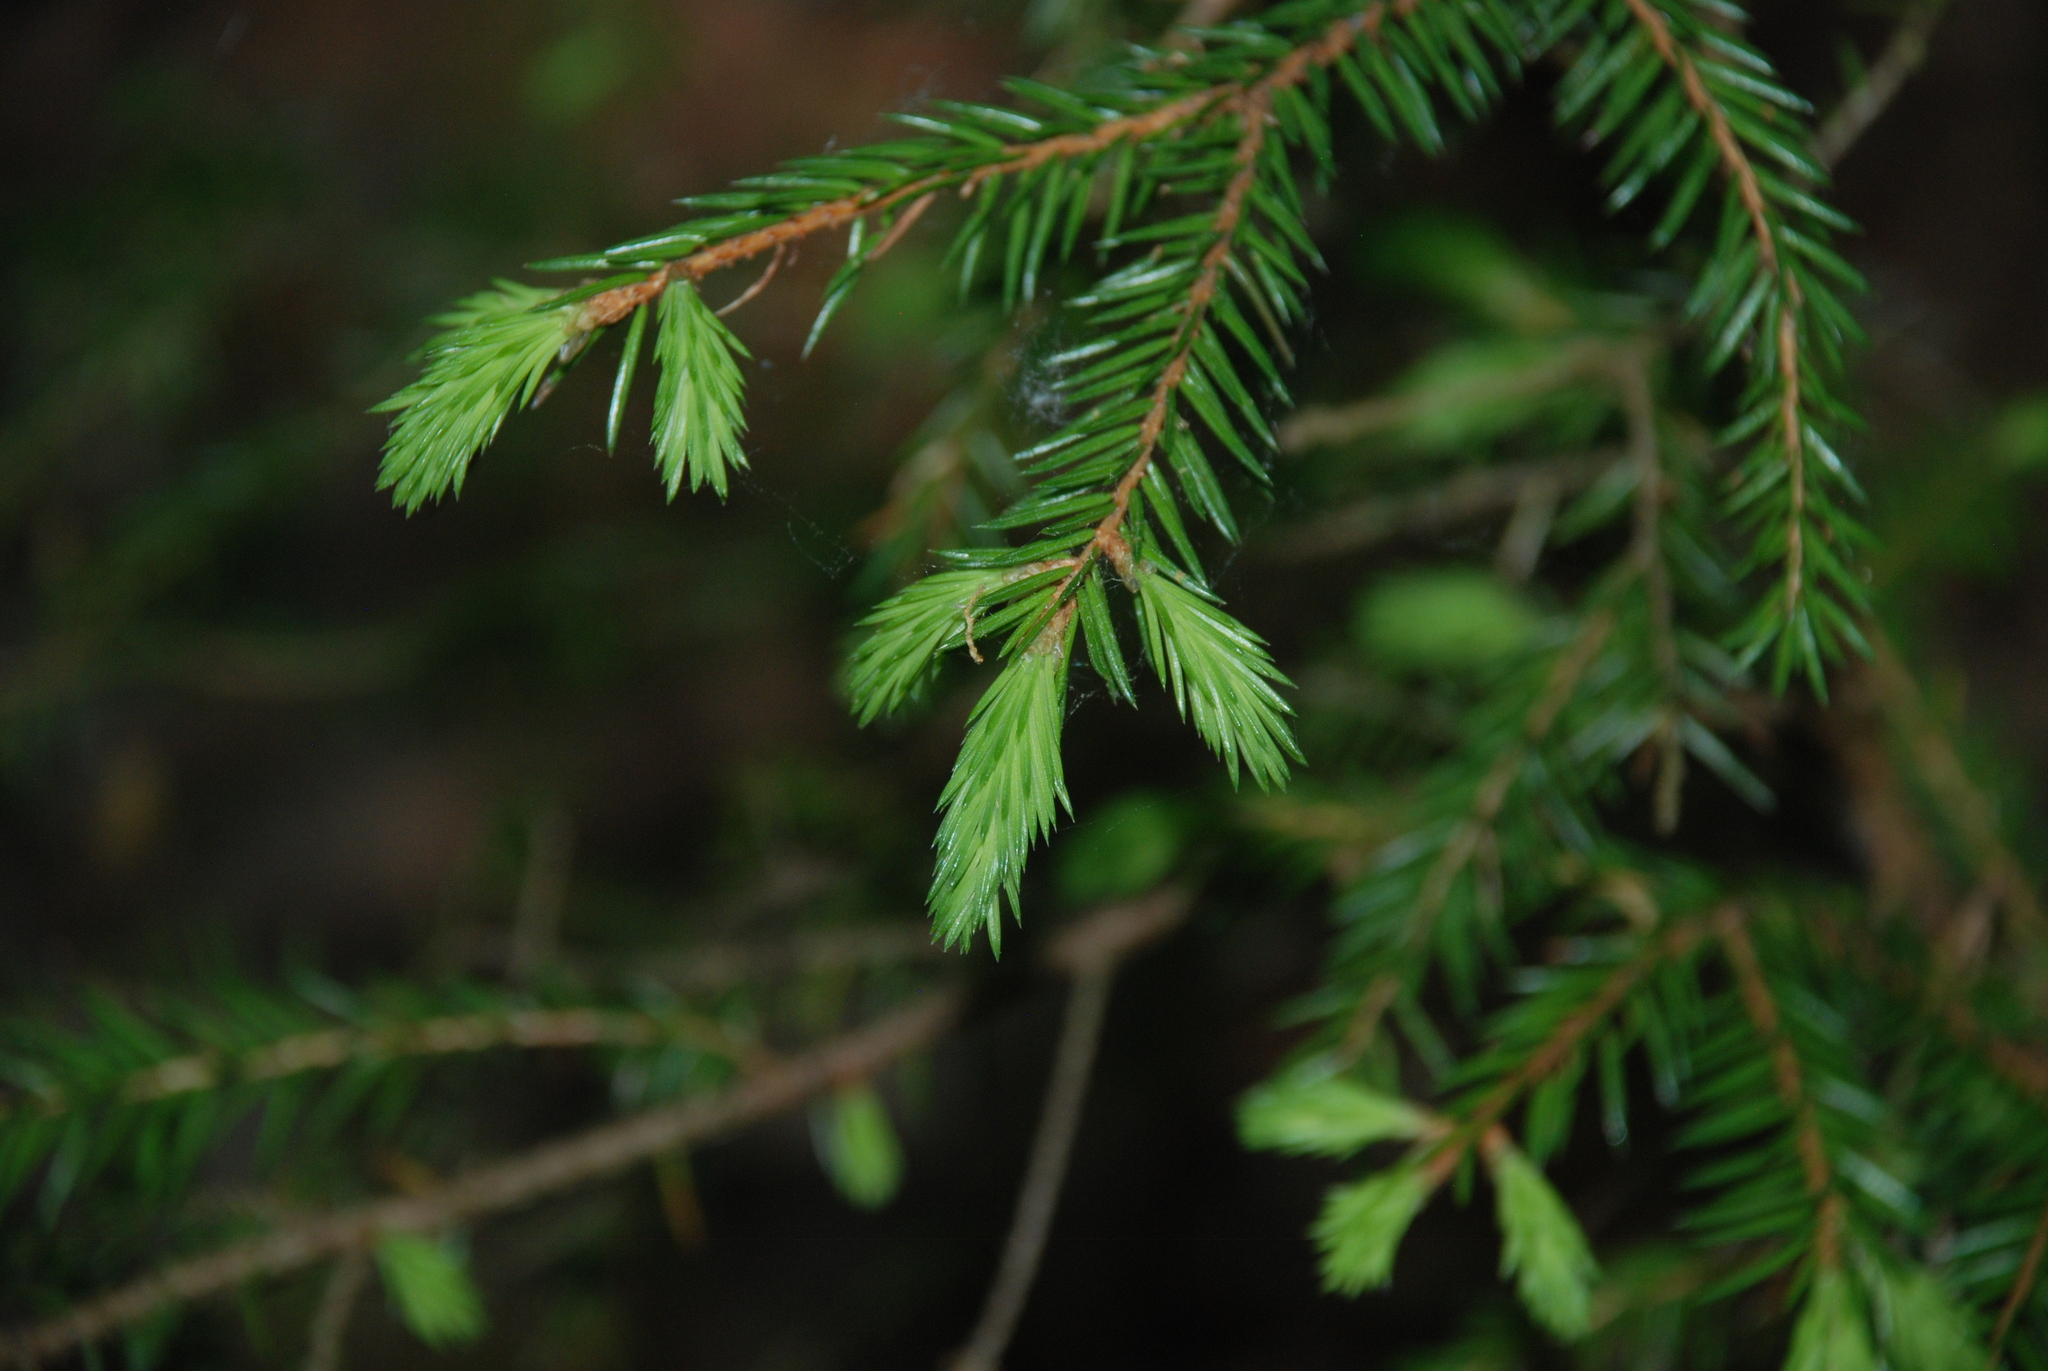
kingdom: Plantae
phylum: Tracheophyta
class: Pinopsida
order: Pinales
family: Pinaceae
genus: Picea
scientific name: Picea abies
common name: Norway spruce
